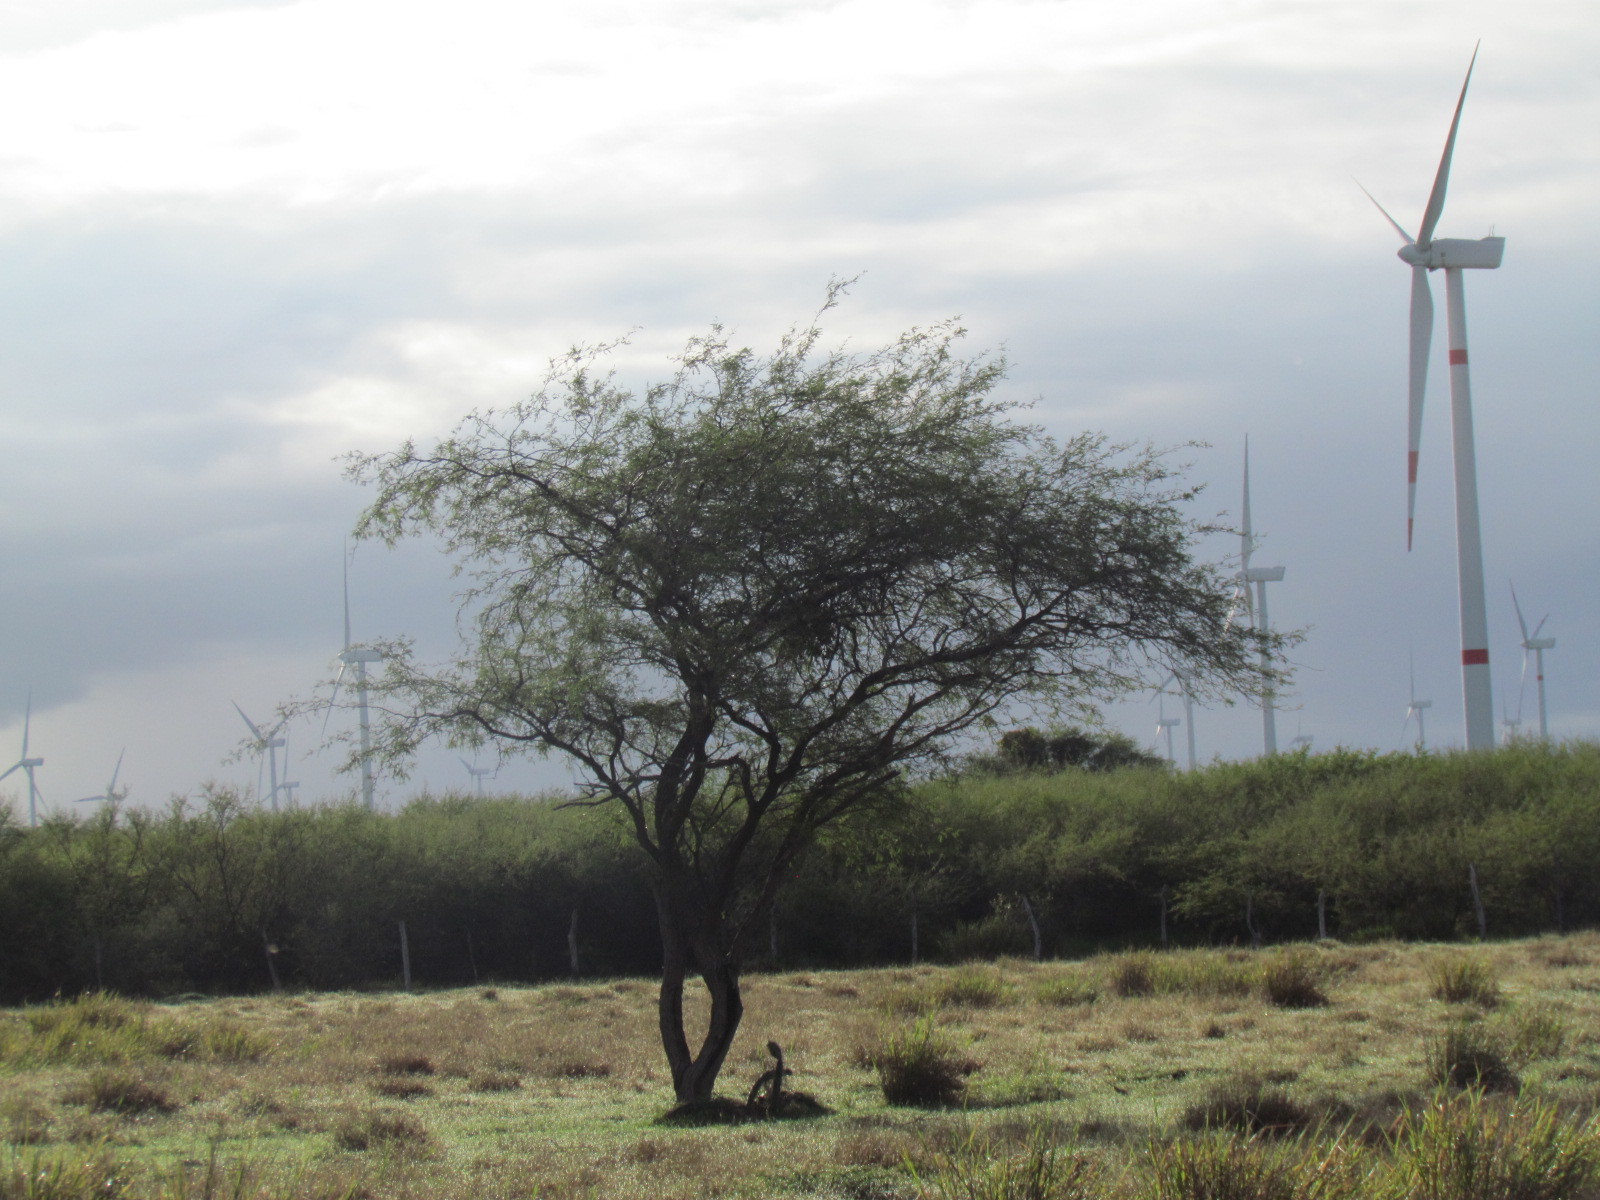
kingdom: Plantae
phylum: Tracheophyta
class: Magnoliopsida
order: Fabales
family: Fabaceae
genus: Prosopis
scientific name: Prosopis laevigata
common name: Smooth mesquite
